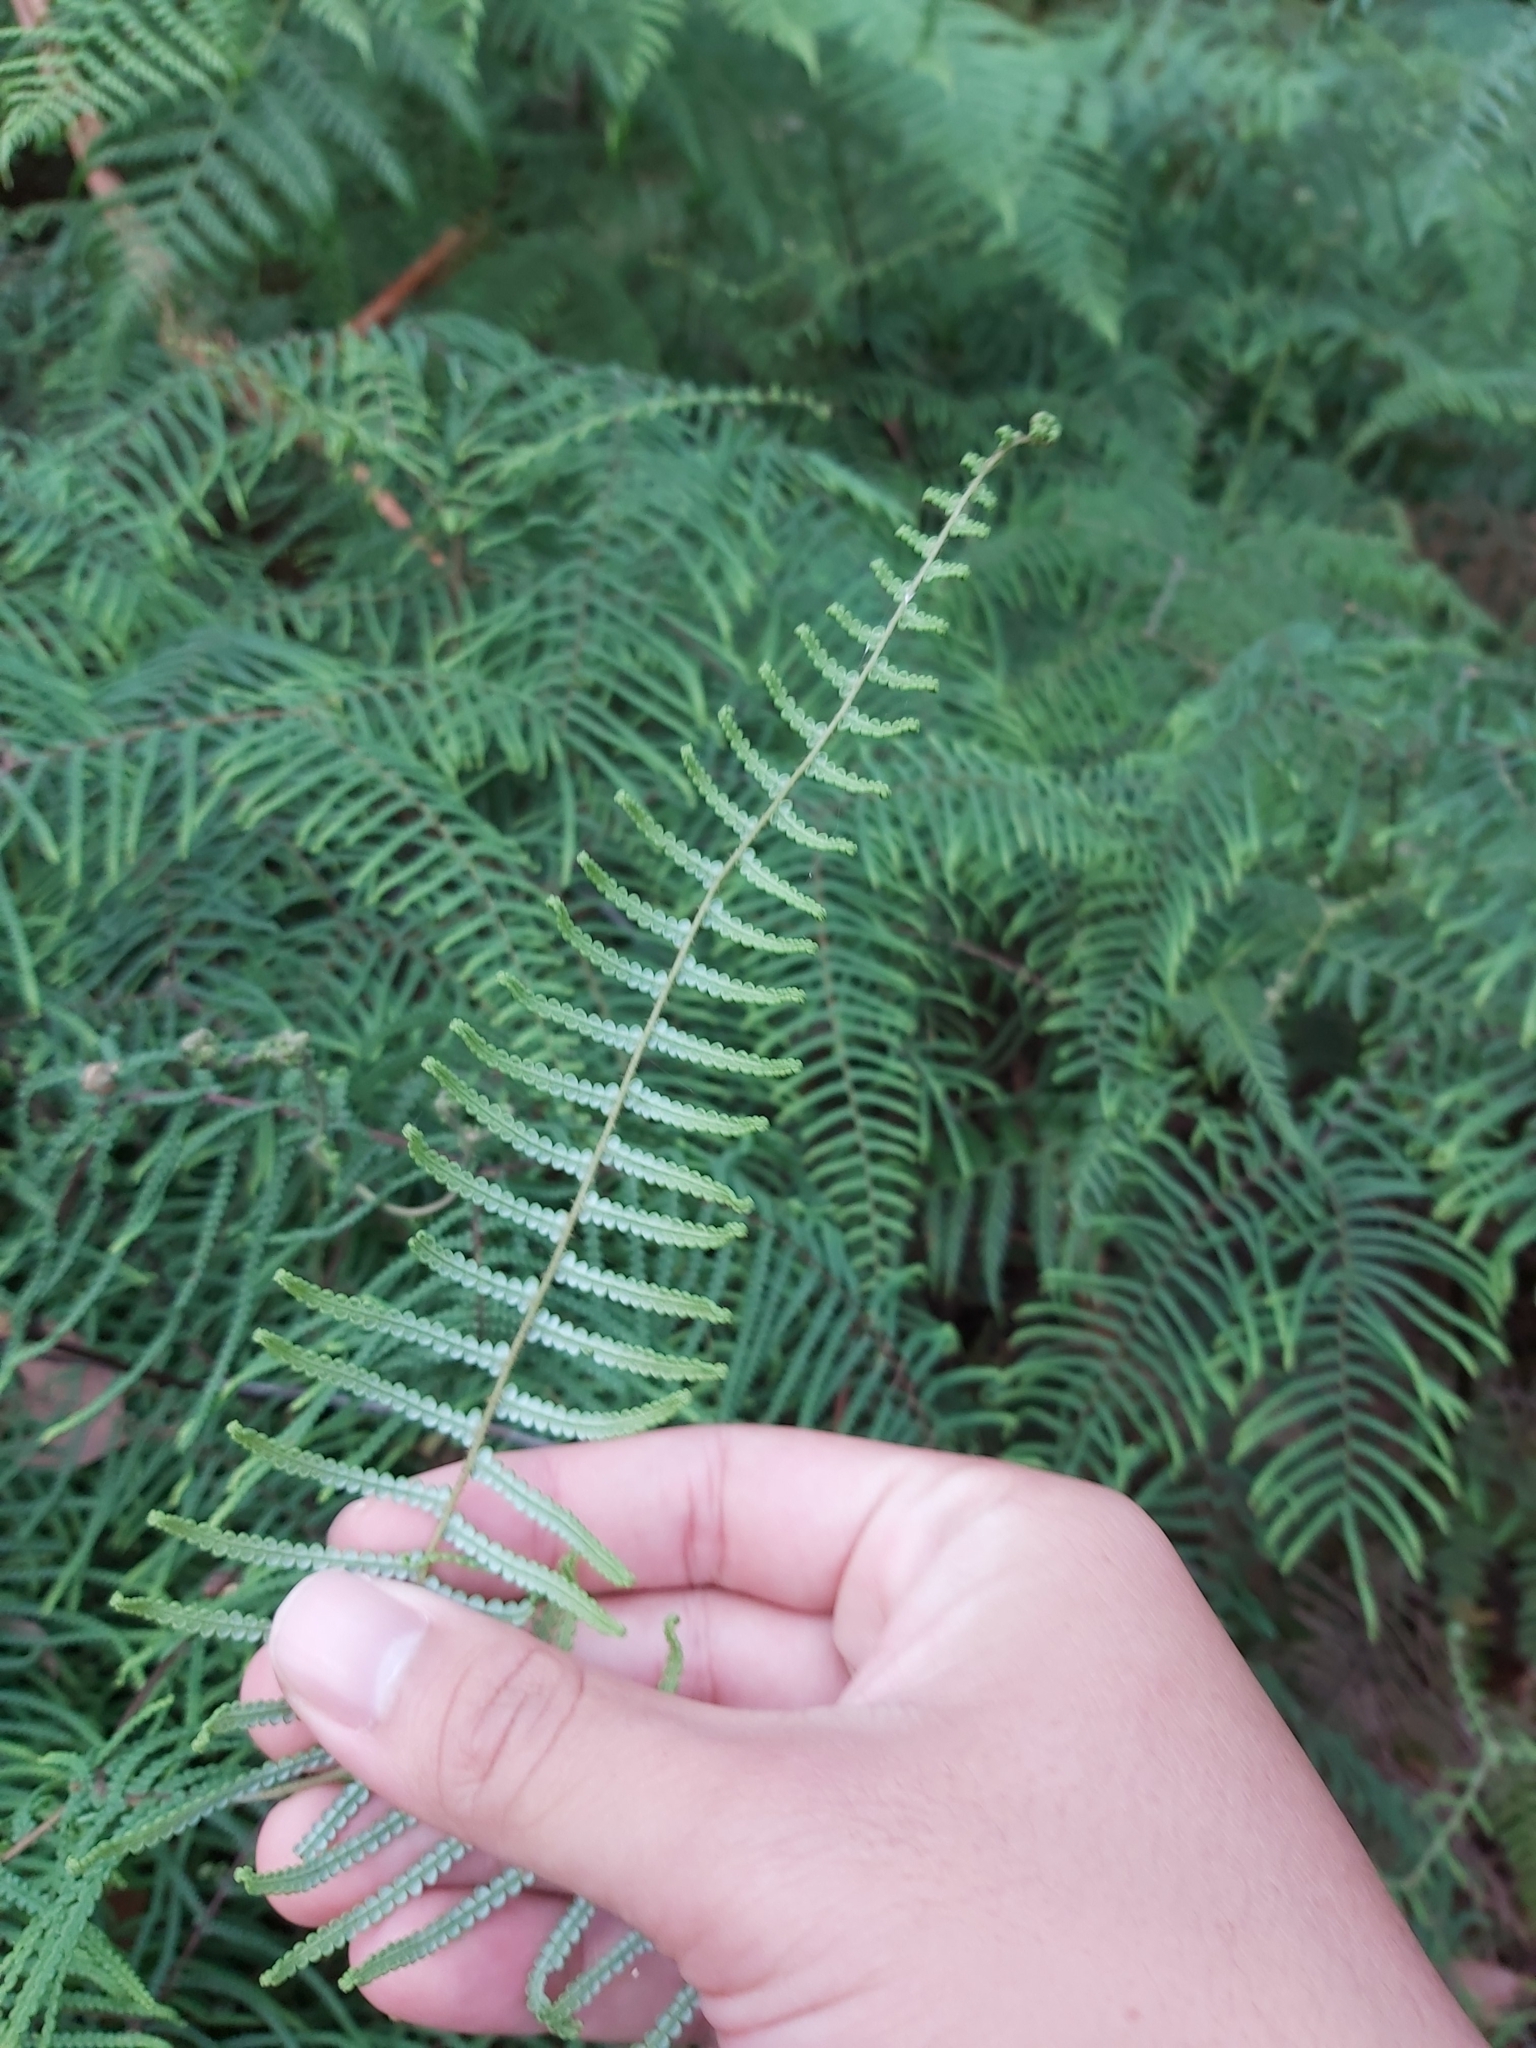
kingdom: Plantae
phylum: Tracheophyta
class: Polypodiopsida
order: Gleicheniales
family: Gleicheniaceae
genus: Gleichenia
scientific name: Gleichenia microphylla
